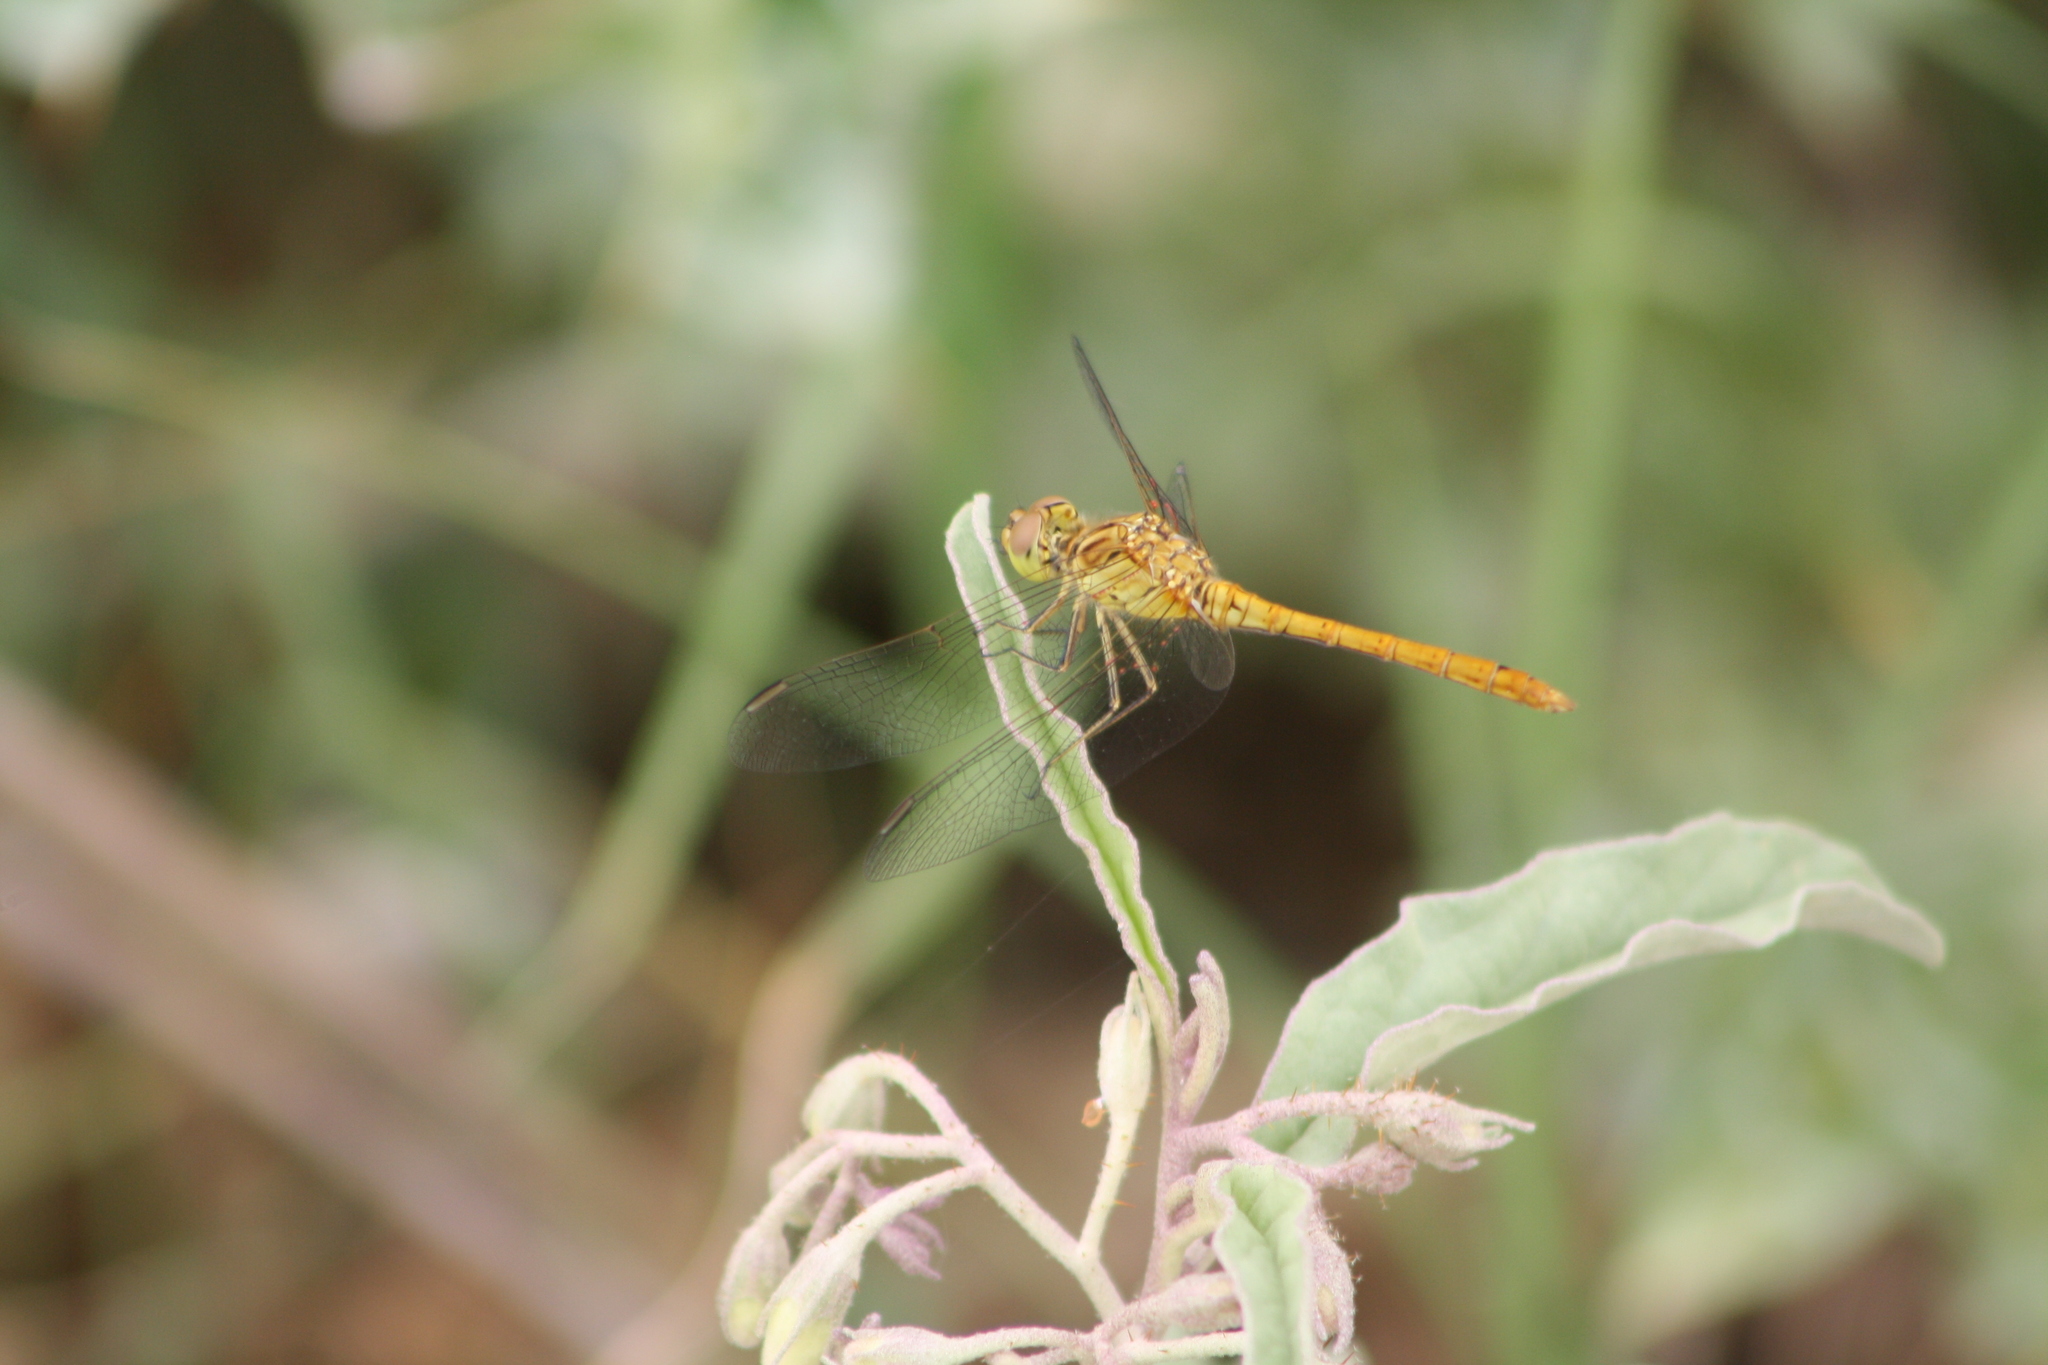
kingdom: Animalia
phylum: Arthropoda
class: Insecta
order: Odonata
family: Libellulidae
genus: Sympetrum
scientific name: Sympetrum meridionale
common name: Southern darter
